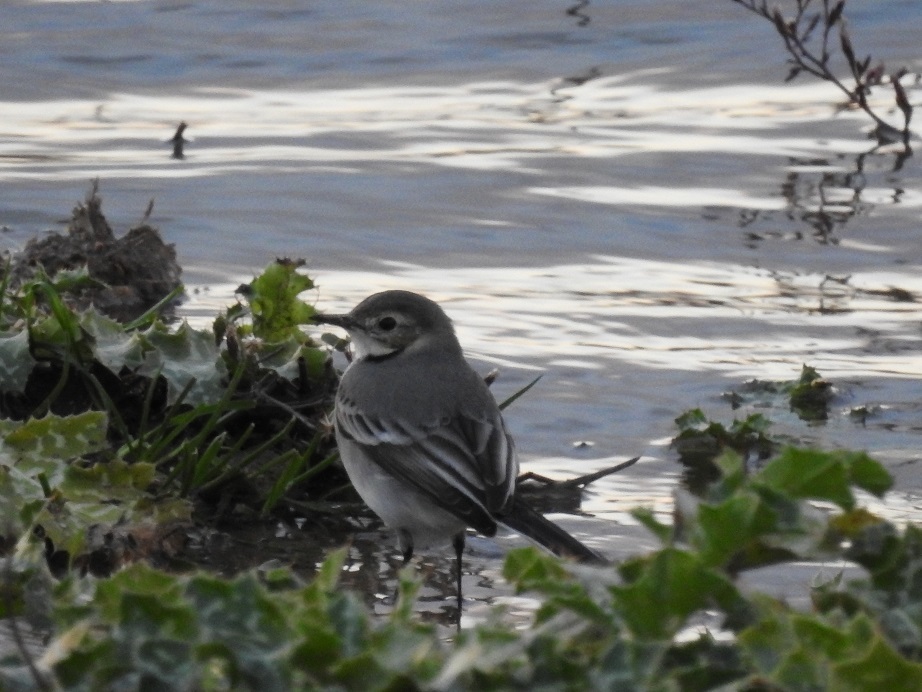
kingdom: Animalia
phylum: Chordata
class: Aves
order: Passeriformes
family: Motacillidae
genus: Motacilla
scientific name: Motacilla alba
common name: White wagtail
